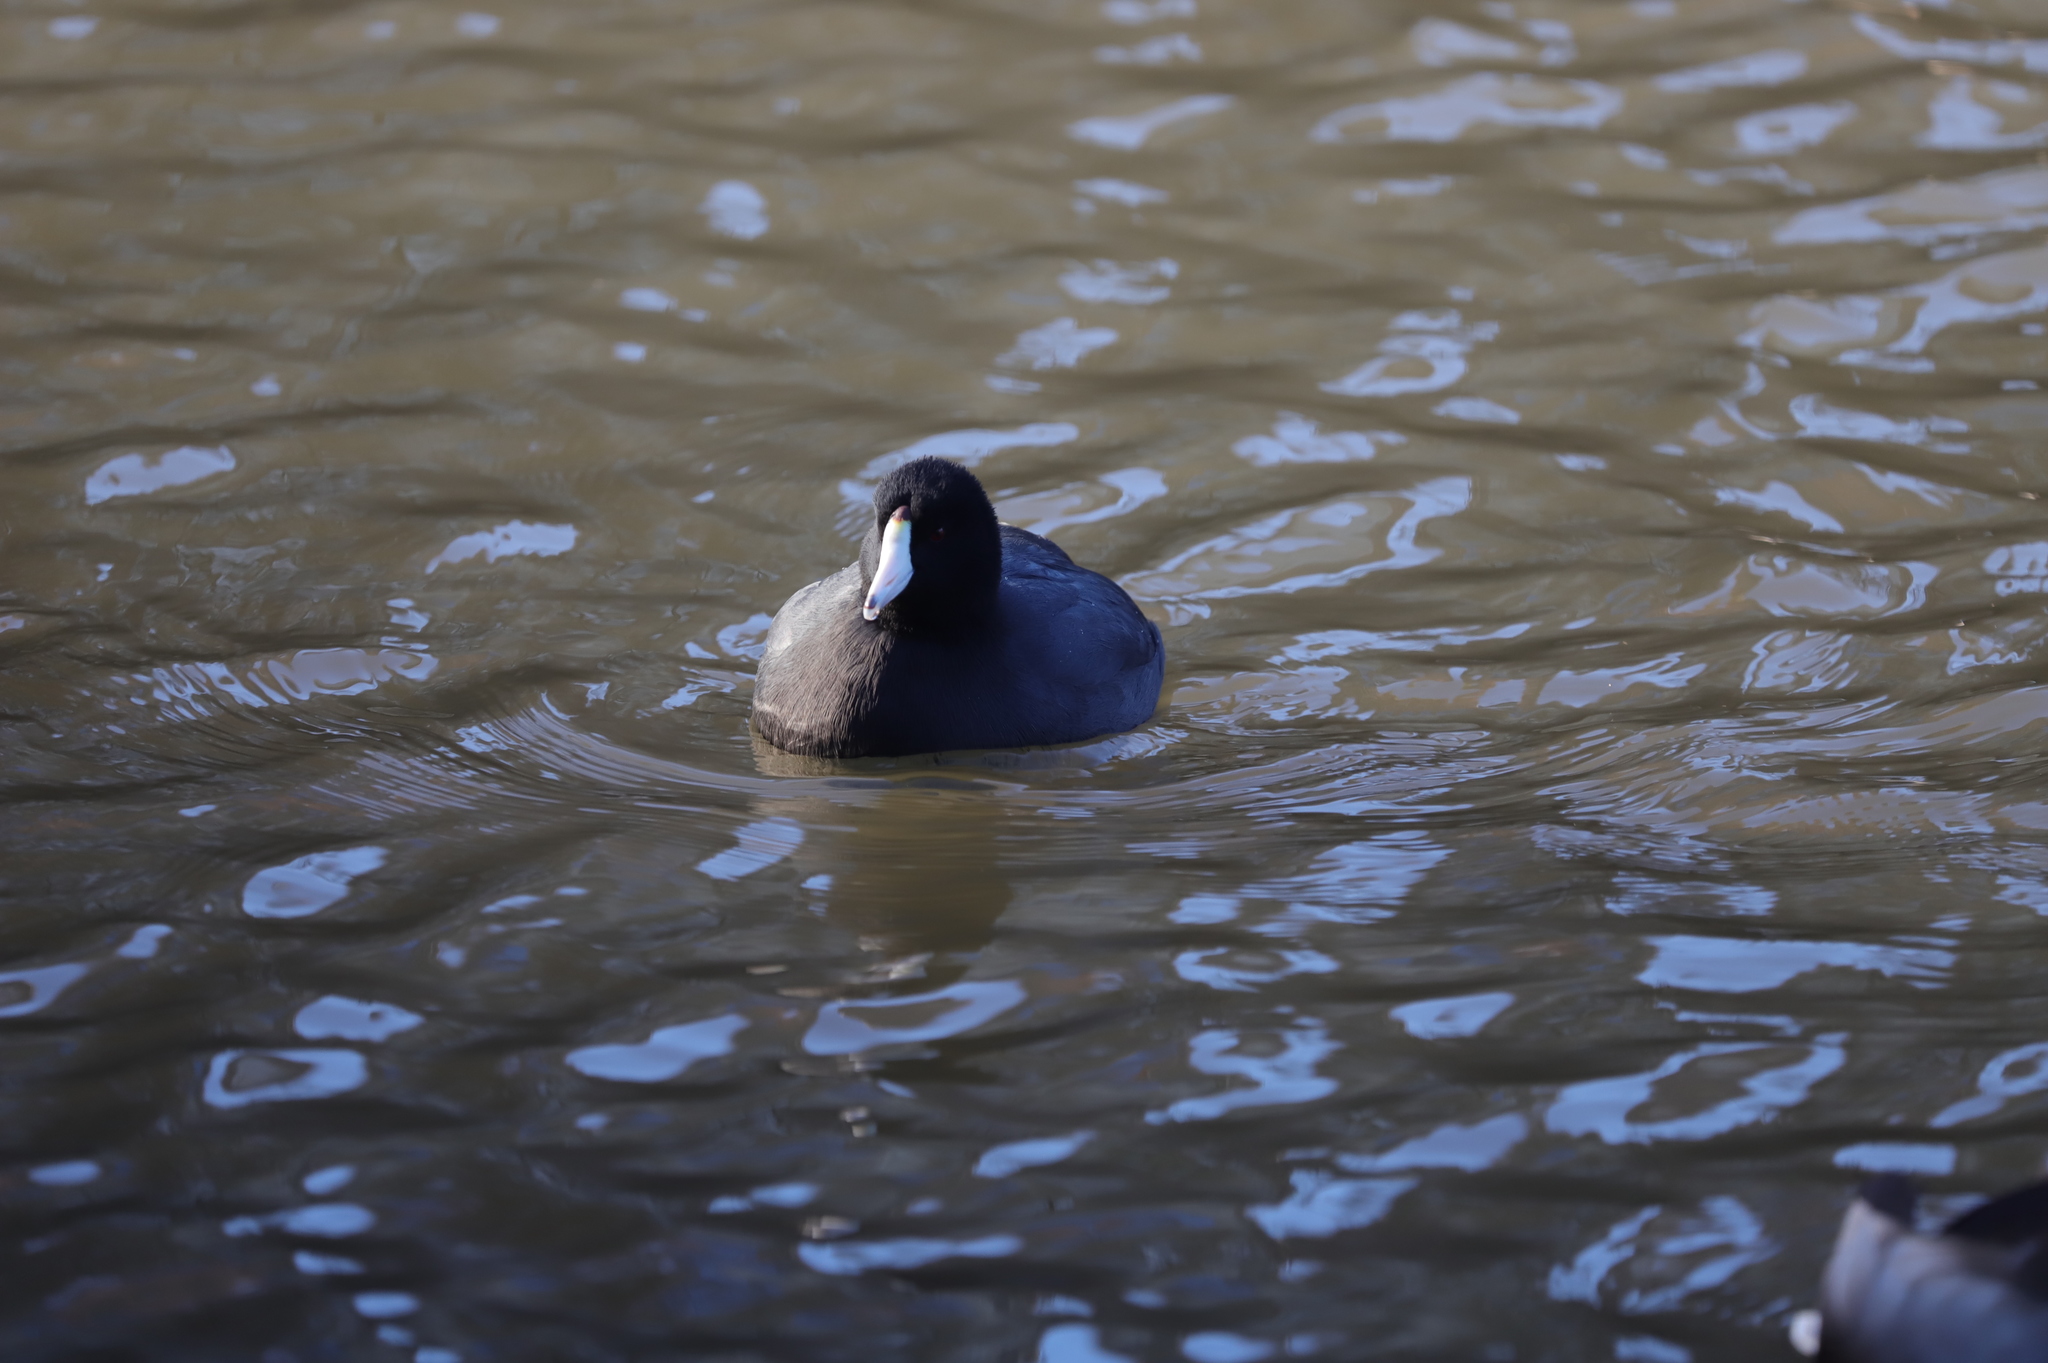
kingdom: Animalia
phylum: Chordata
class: Aves
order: Gruiformes
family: Rallidae
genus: Fulica
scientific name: Fulica americana
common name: American coot
